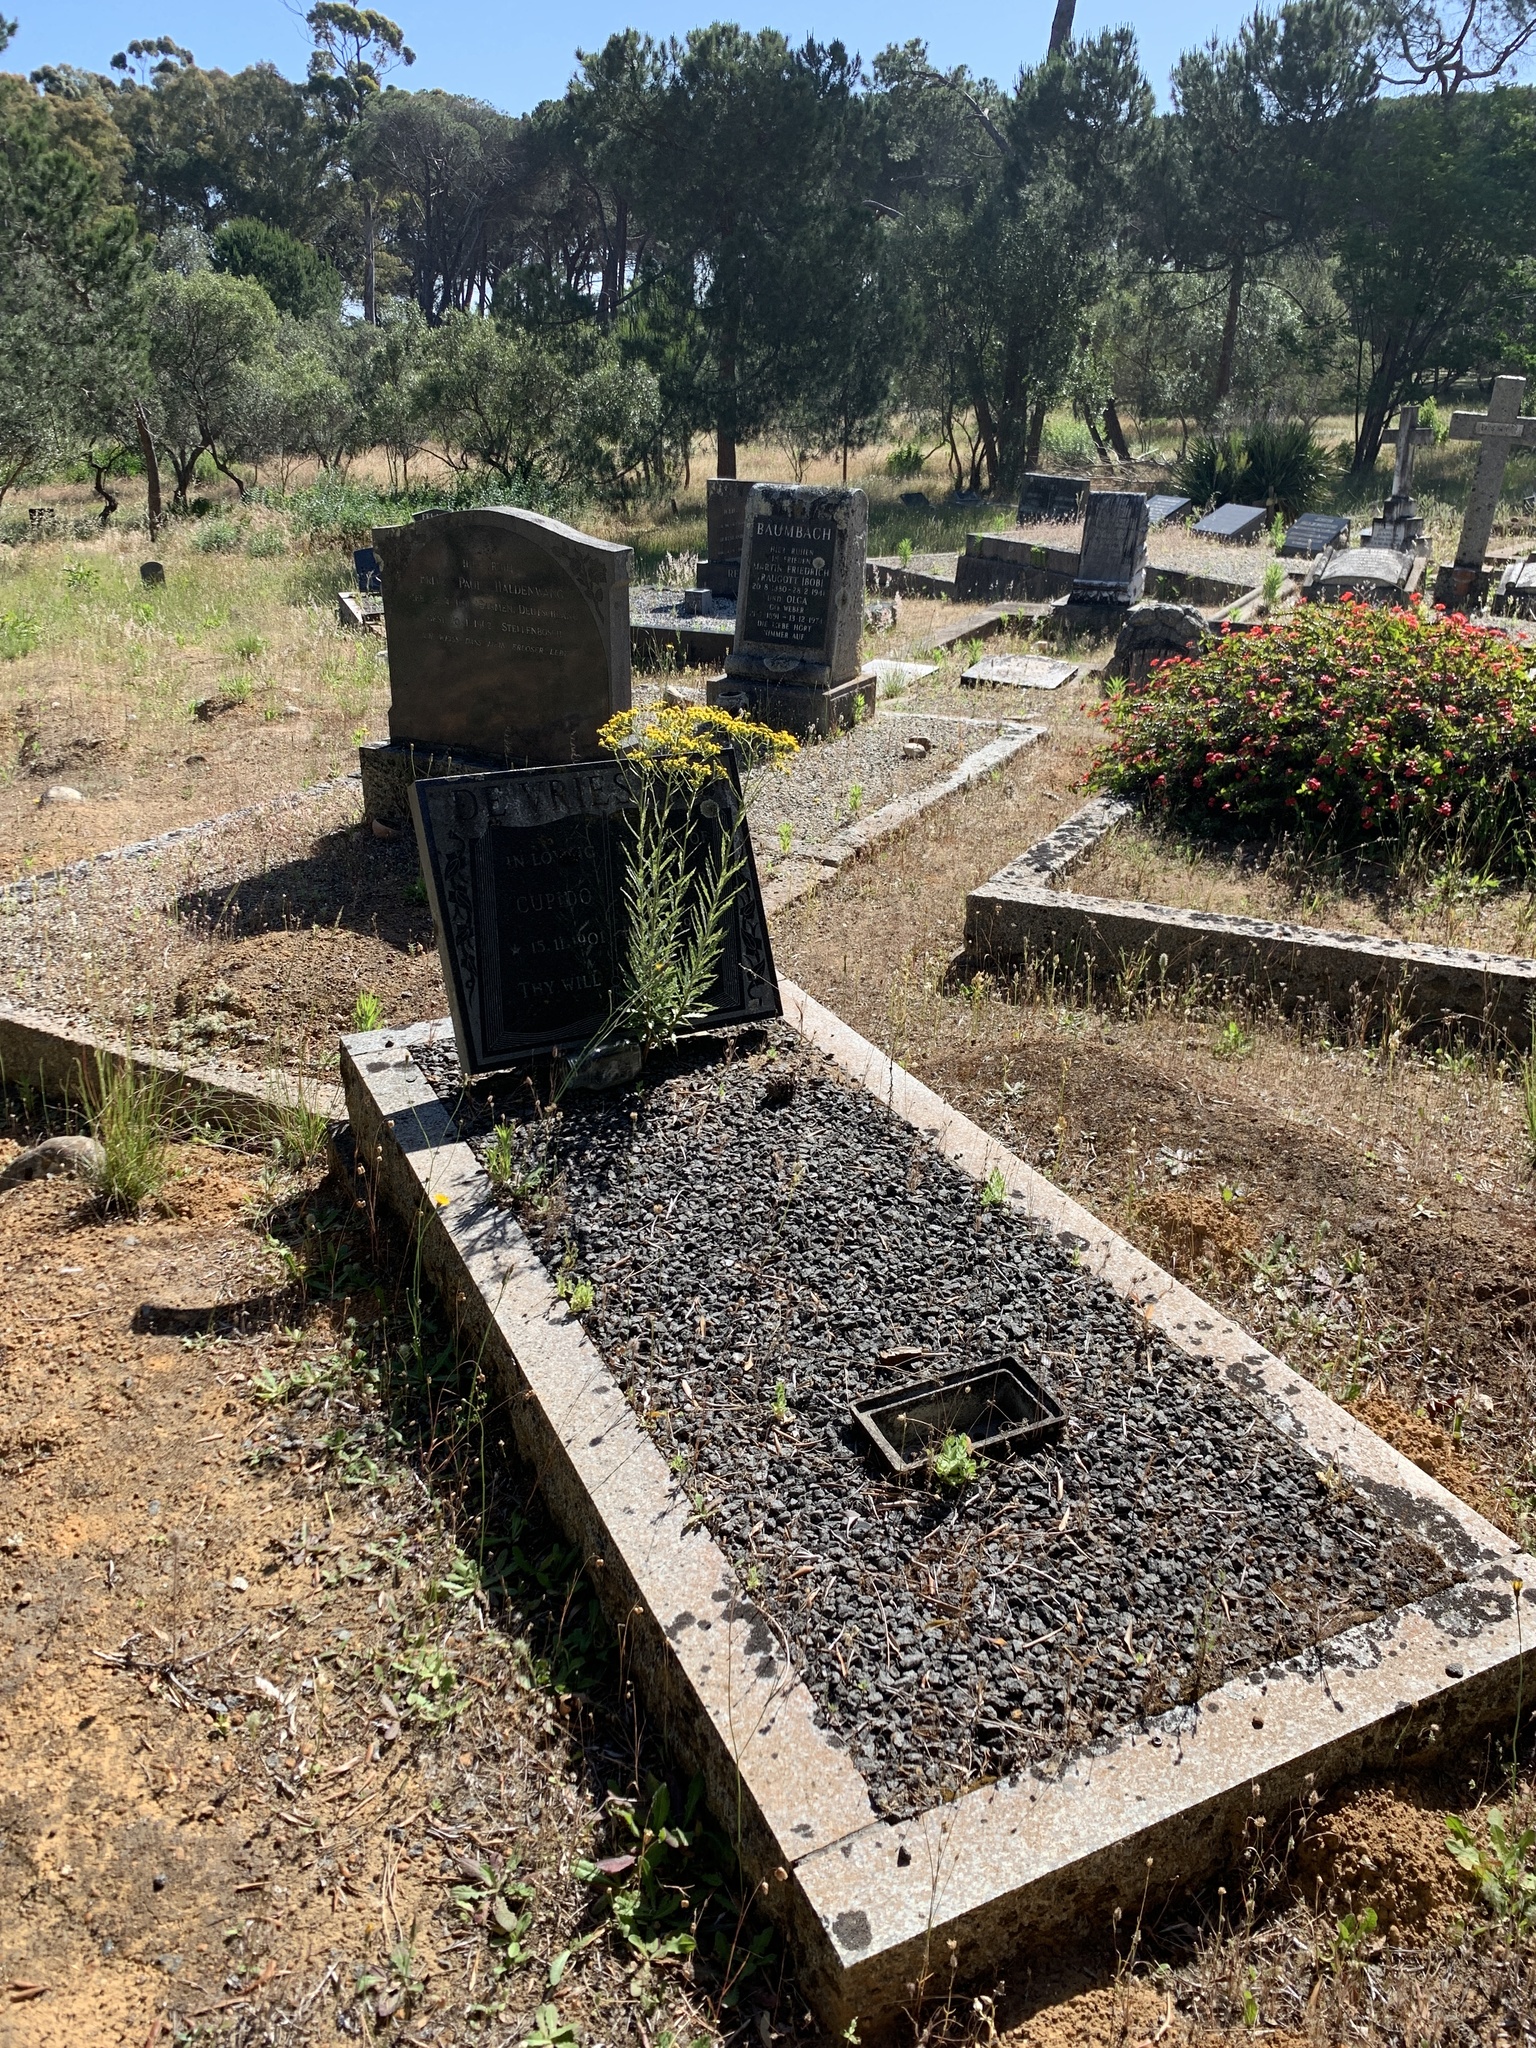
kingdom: Plantae
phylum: Tracheophyta
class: Magnoliopsida
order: Asterales
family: Asteraceae
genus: Senecio
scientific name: Senecio pterophorus
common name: Shoddy ragwort
